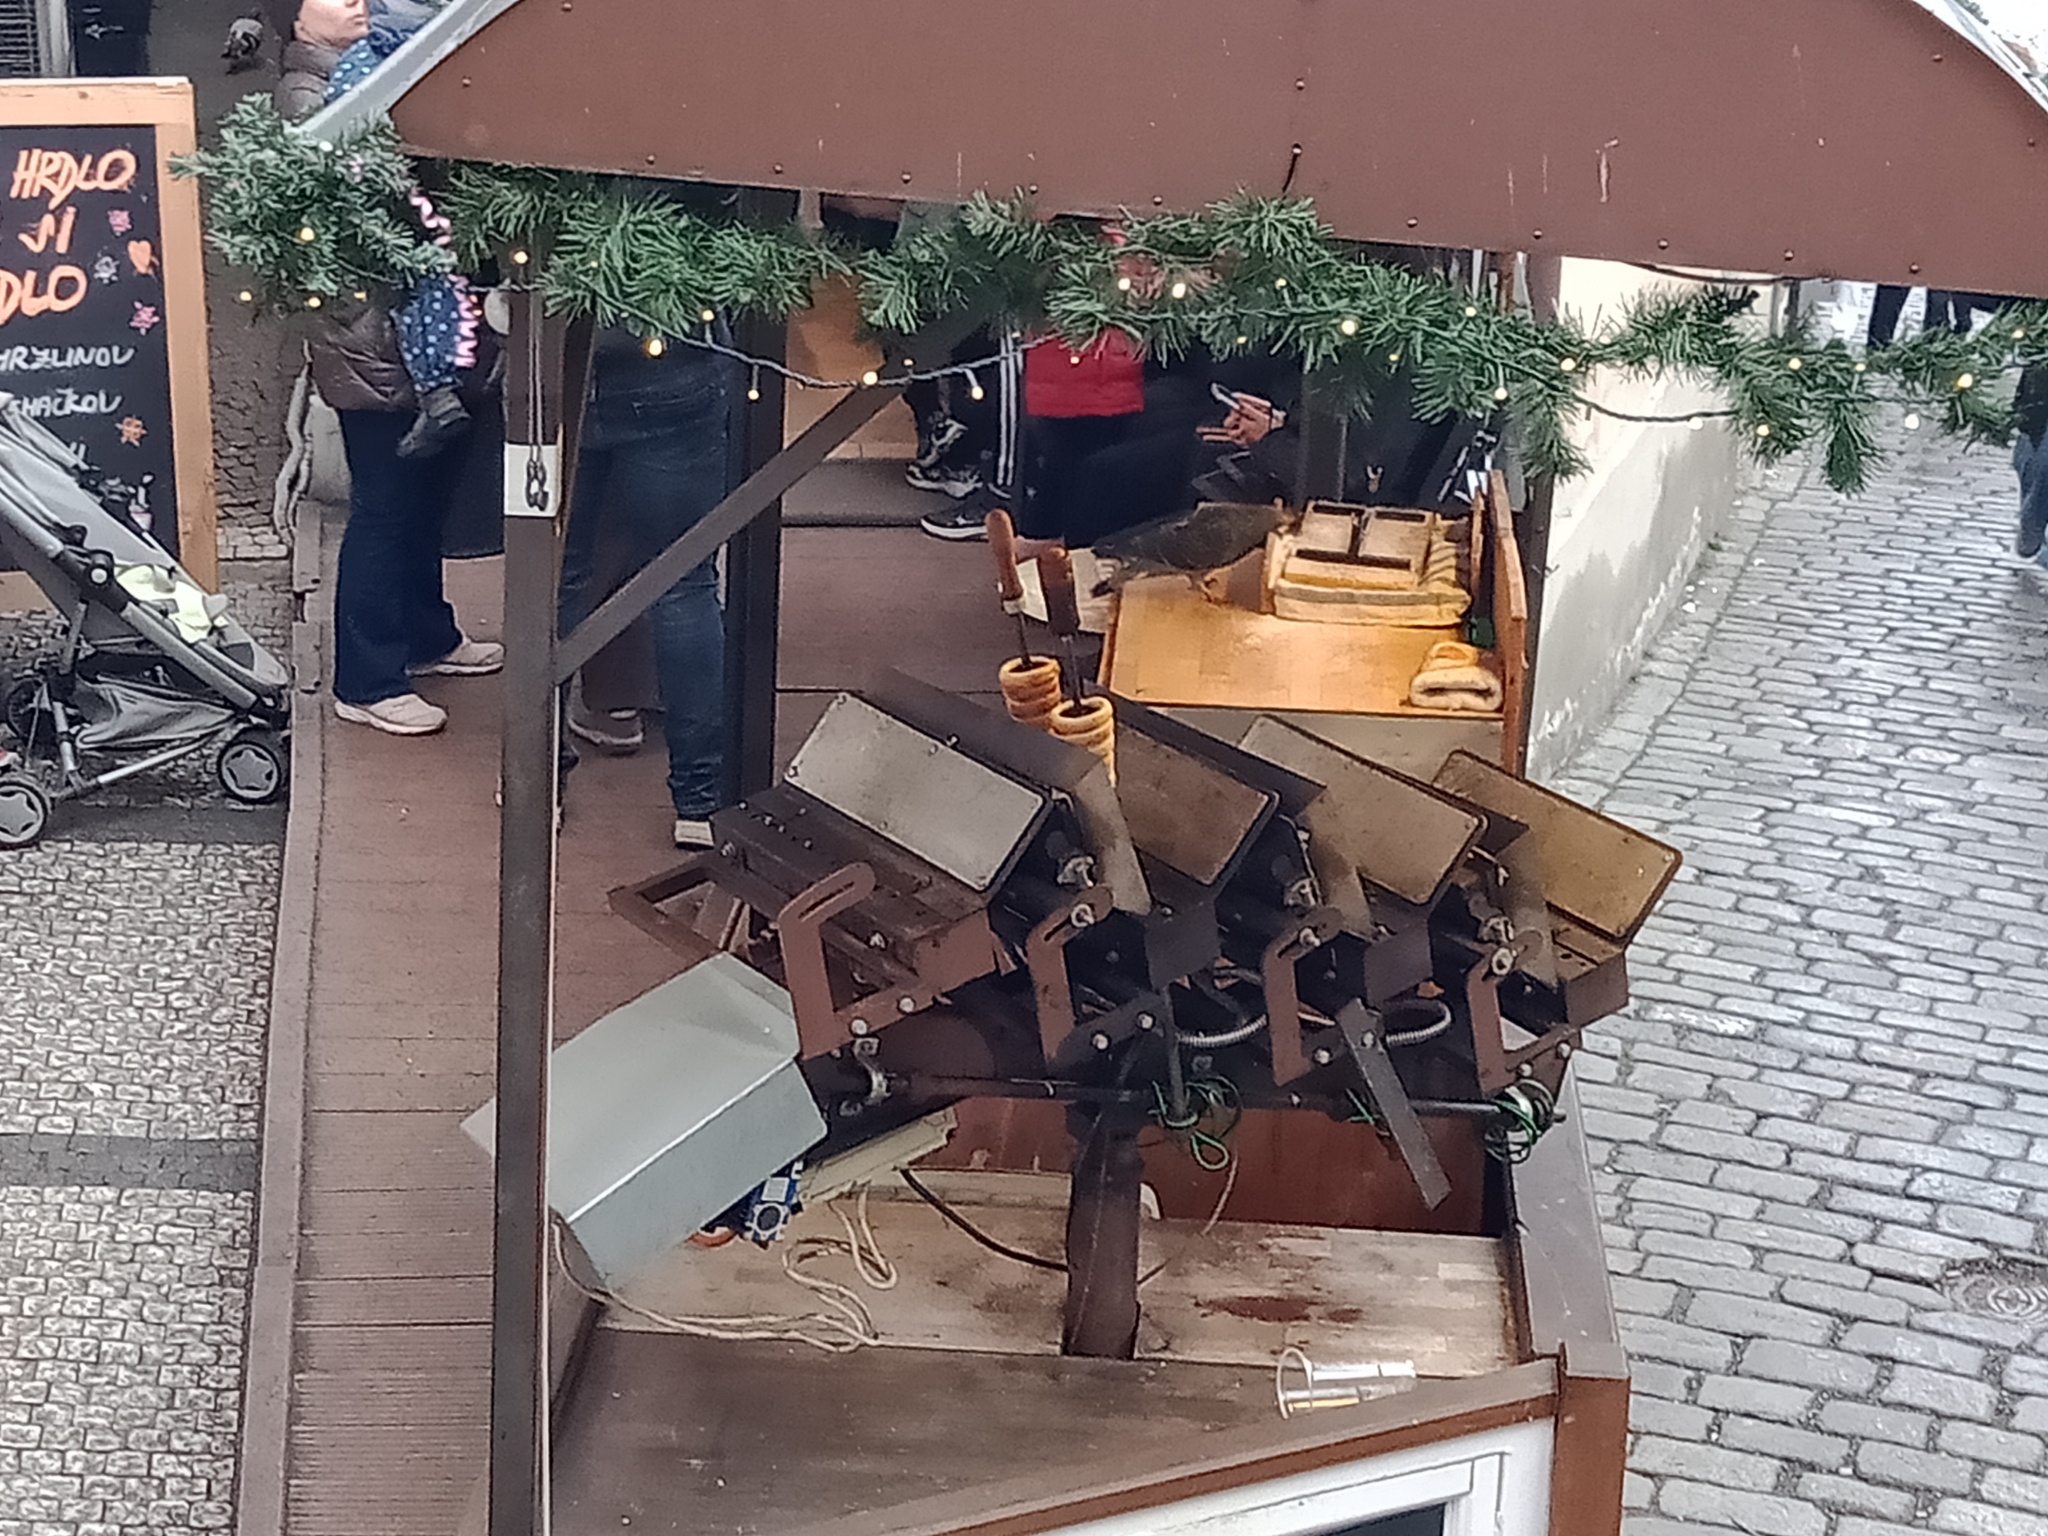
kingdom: Animalia
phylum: Chordata
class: Aves
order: Columbiformes
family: Columbidae
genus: Columba
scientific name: Columba livia
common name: Rock pigeon
